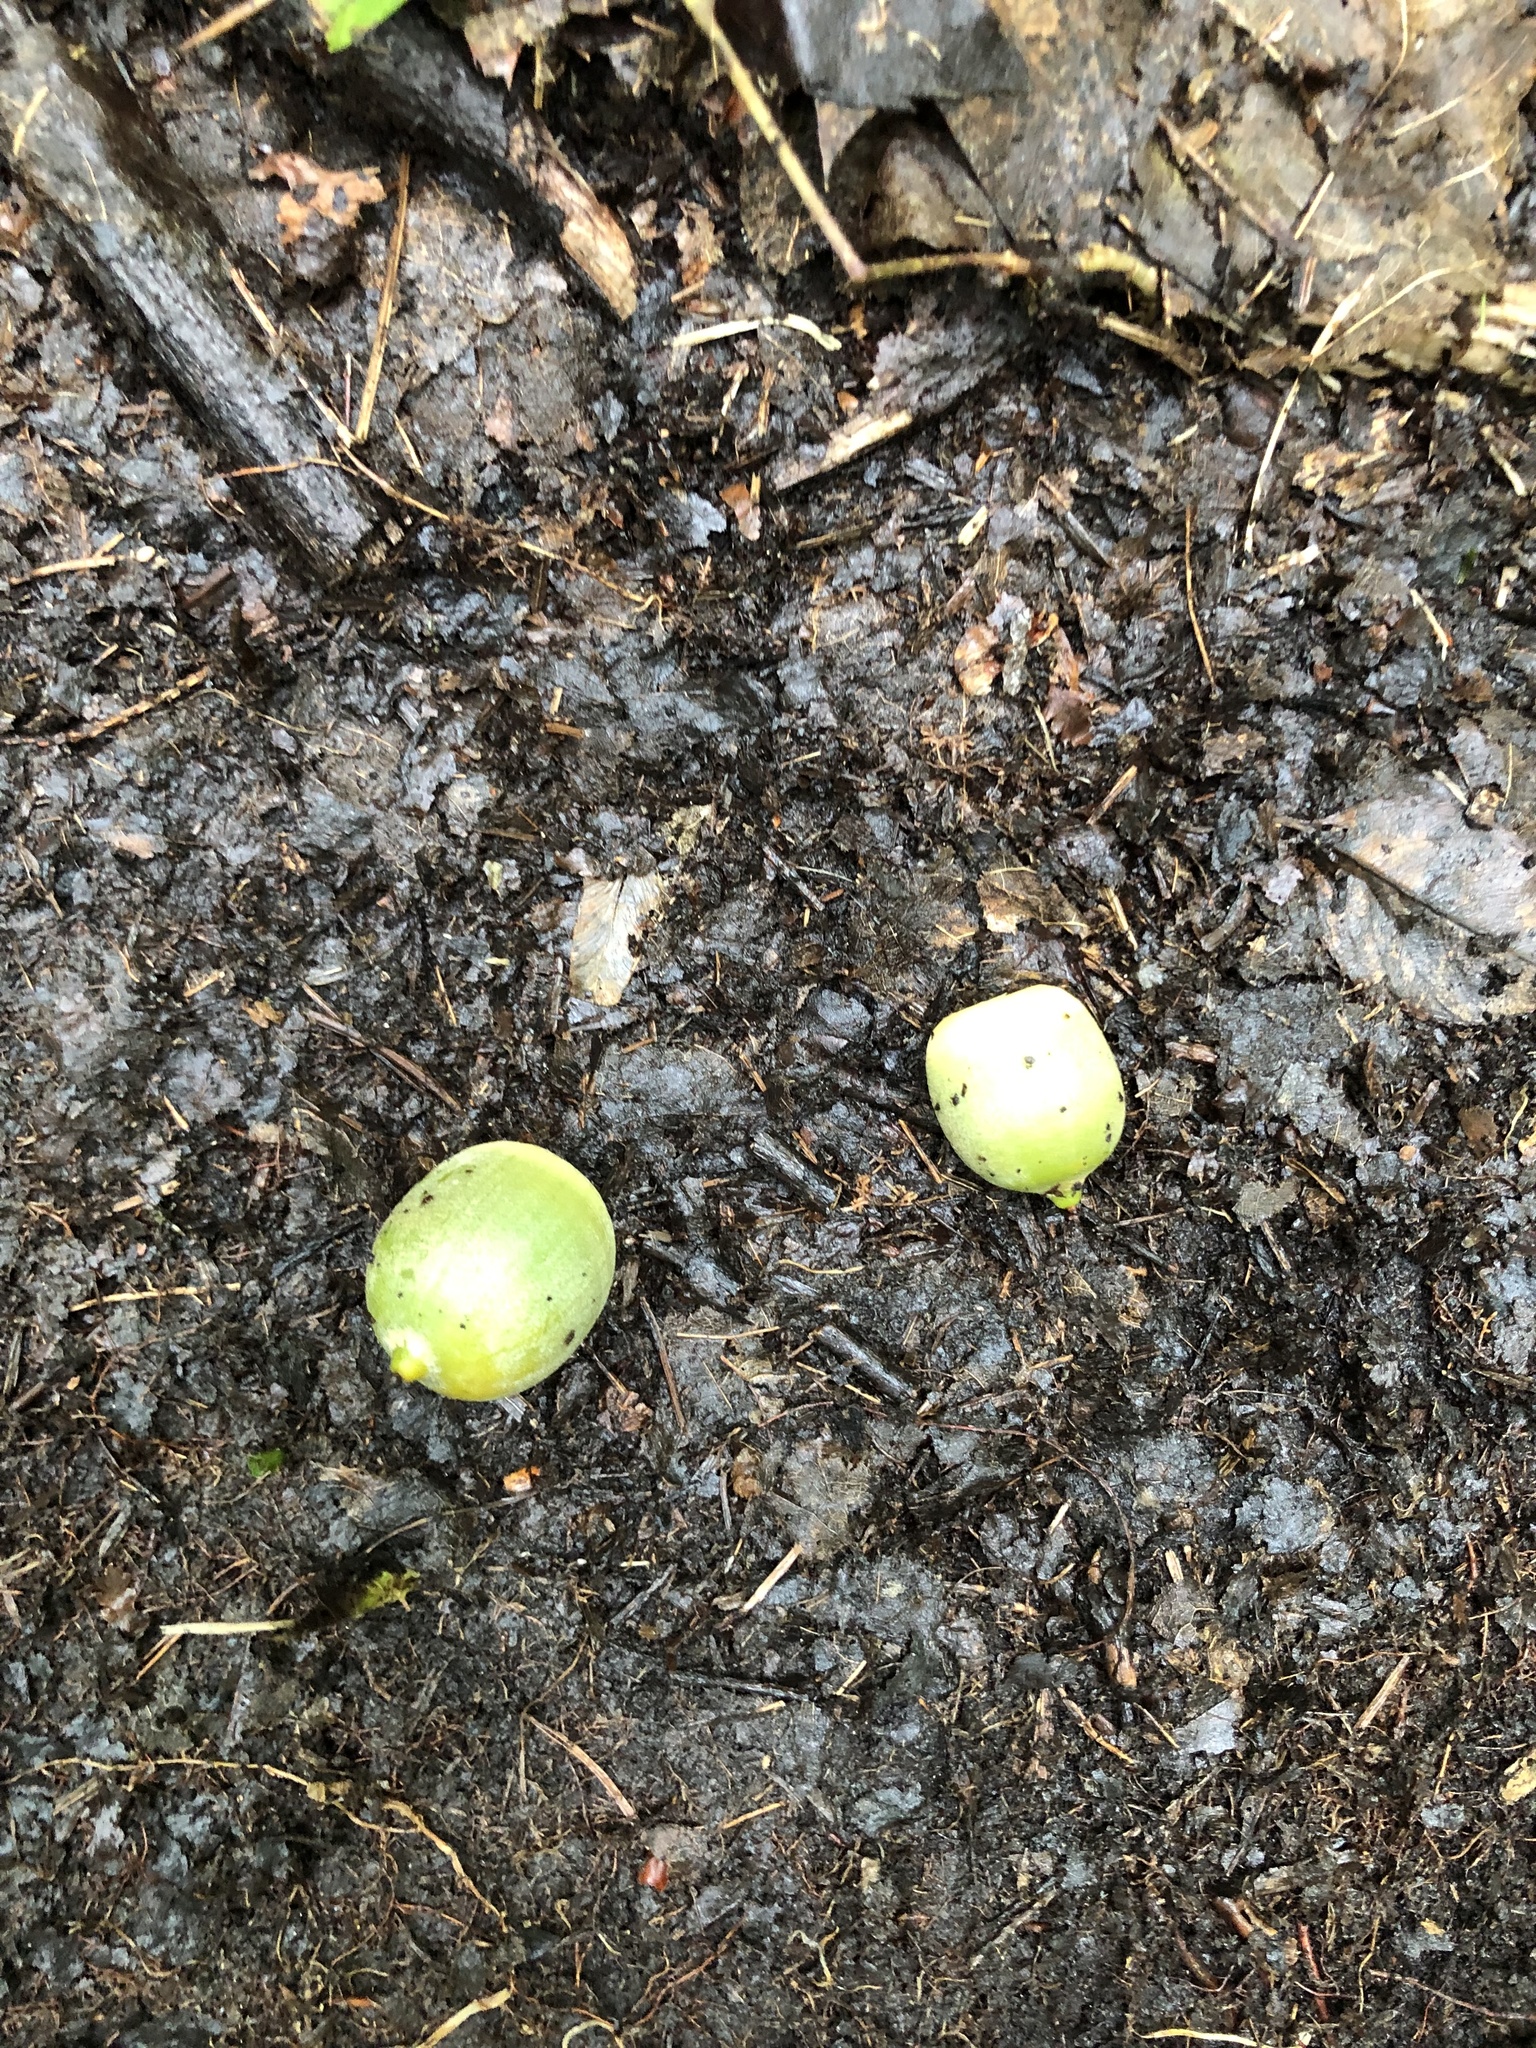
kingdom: Plantae
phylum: Tracheophyta
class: Magnoliopsida
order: Fagales
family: Fagaceae
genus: Quercus
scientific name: Quercus
